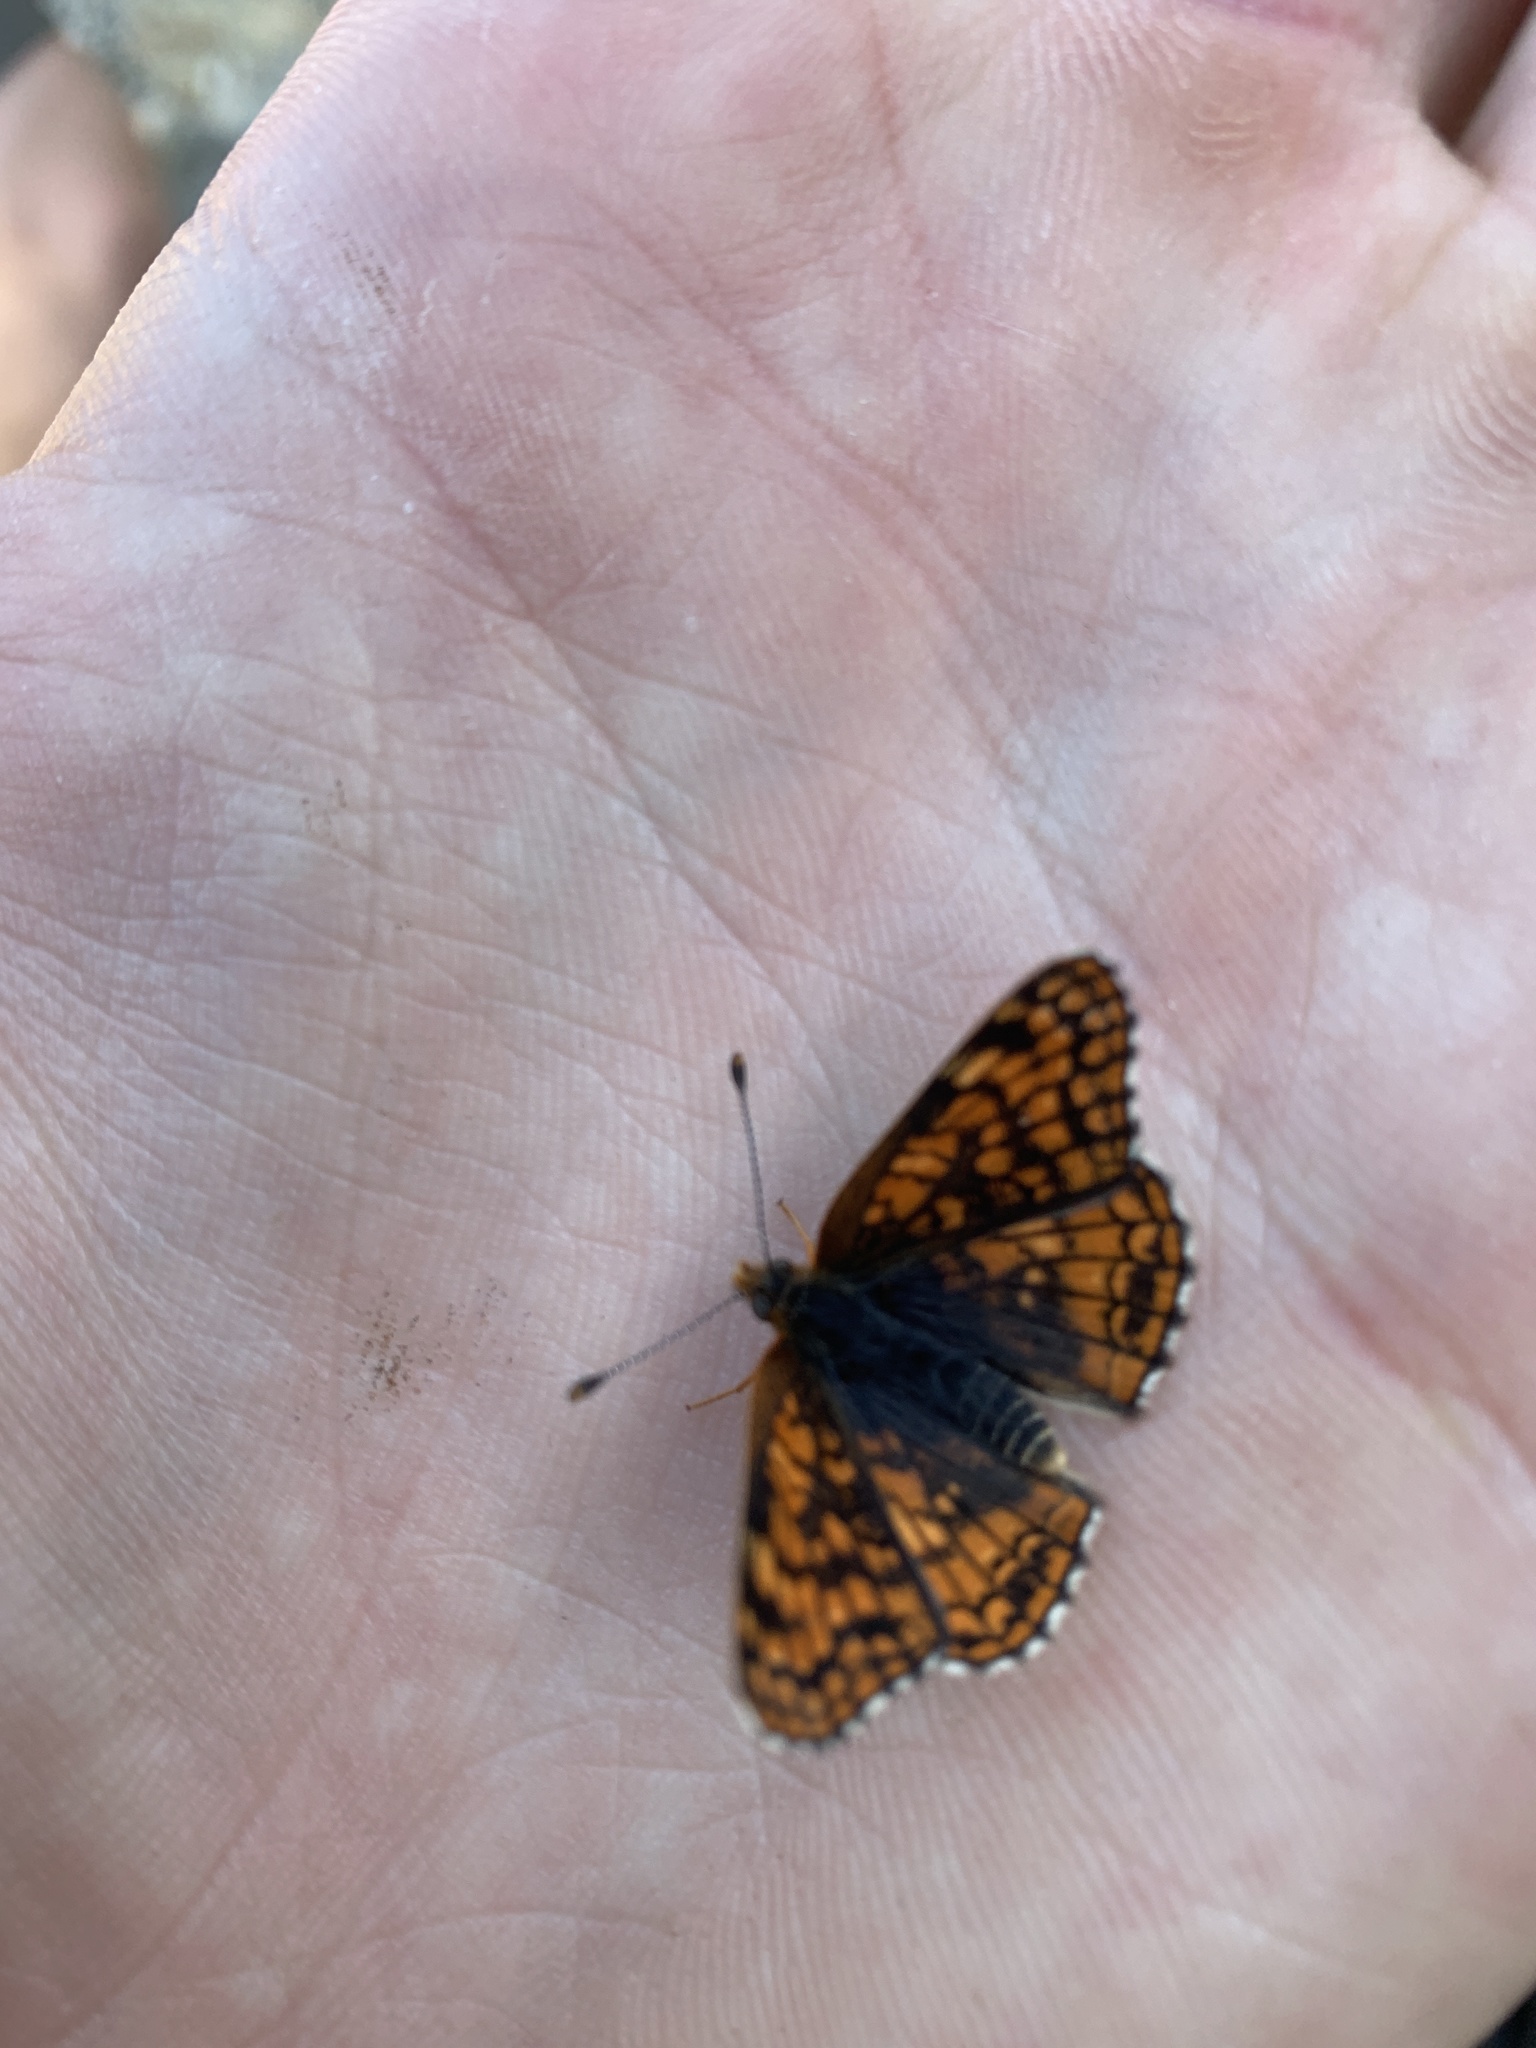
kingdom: Animalia
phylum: Arthropoda
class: Insecta
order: Lepidoptera
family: Nymphalidae
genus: Chlosyne
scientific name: Chlosyne palla
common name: Northern checkerspot
